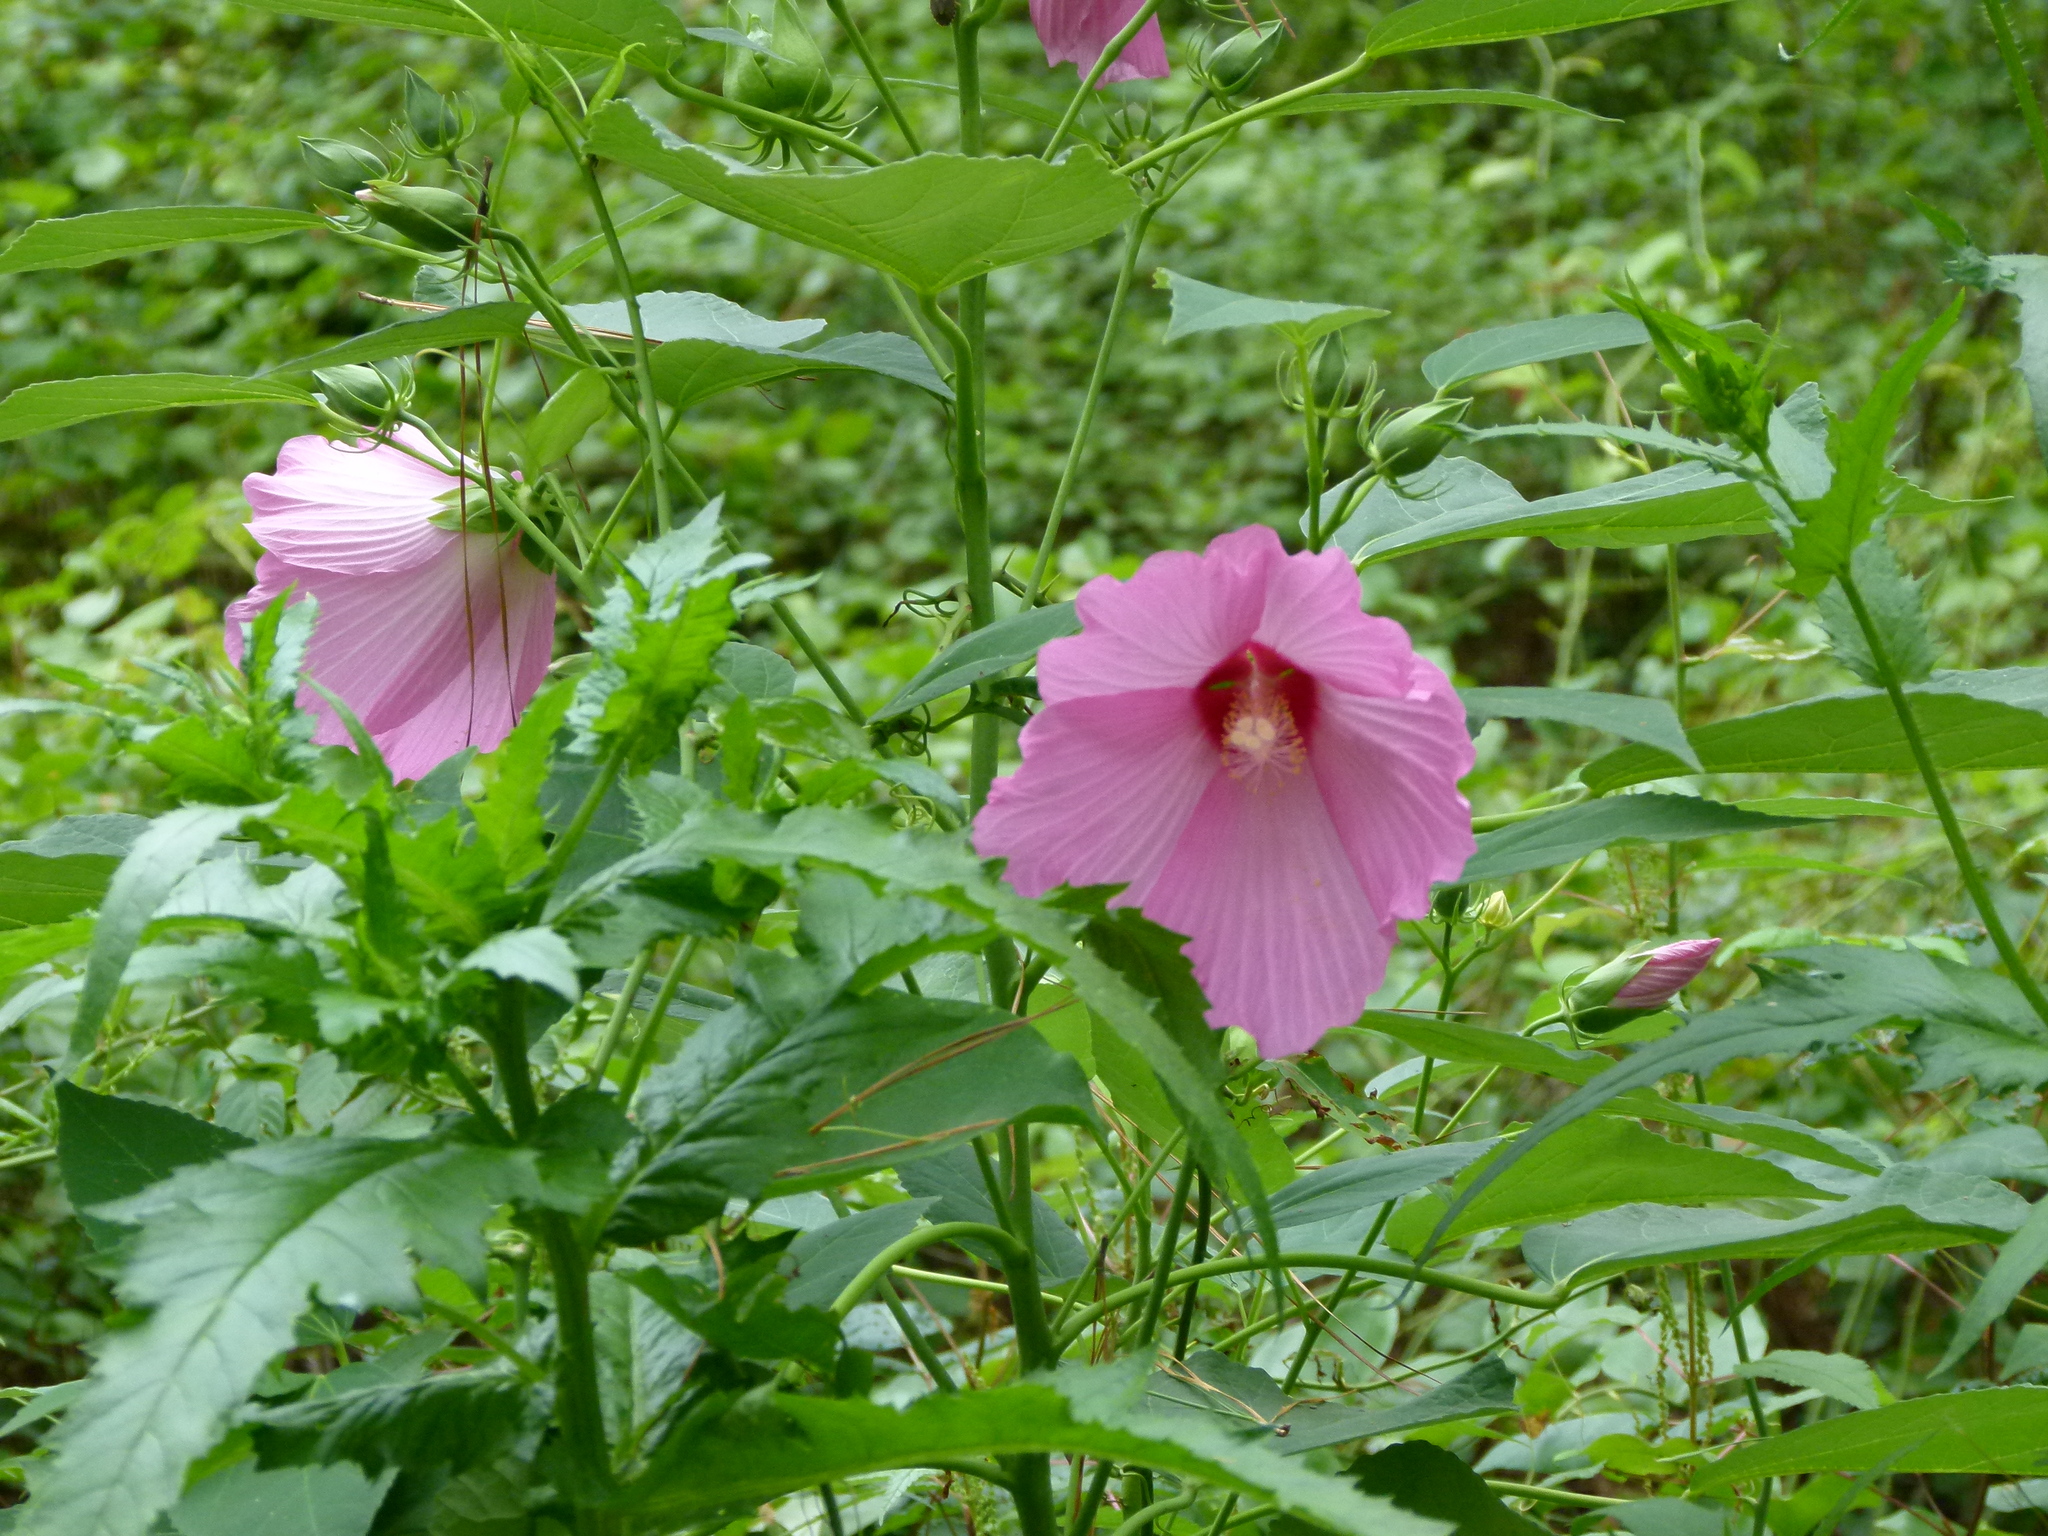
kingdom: Plantae
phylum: Tracheophyta
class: Magnoliopsida
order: Malvales
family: Malvaceae
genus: Hibiscus
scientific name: Hibiscus moscheutos
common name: Common rose-mallow
